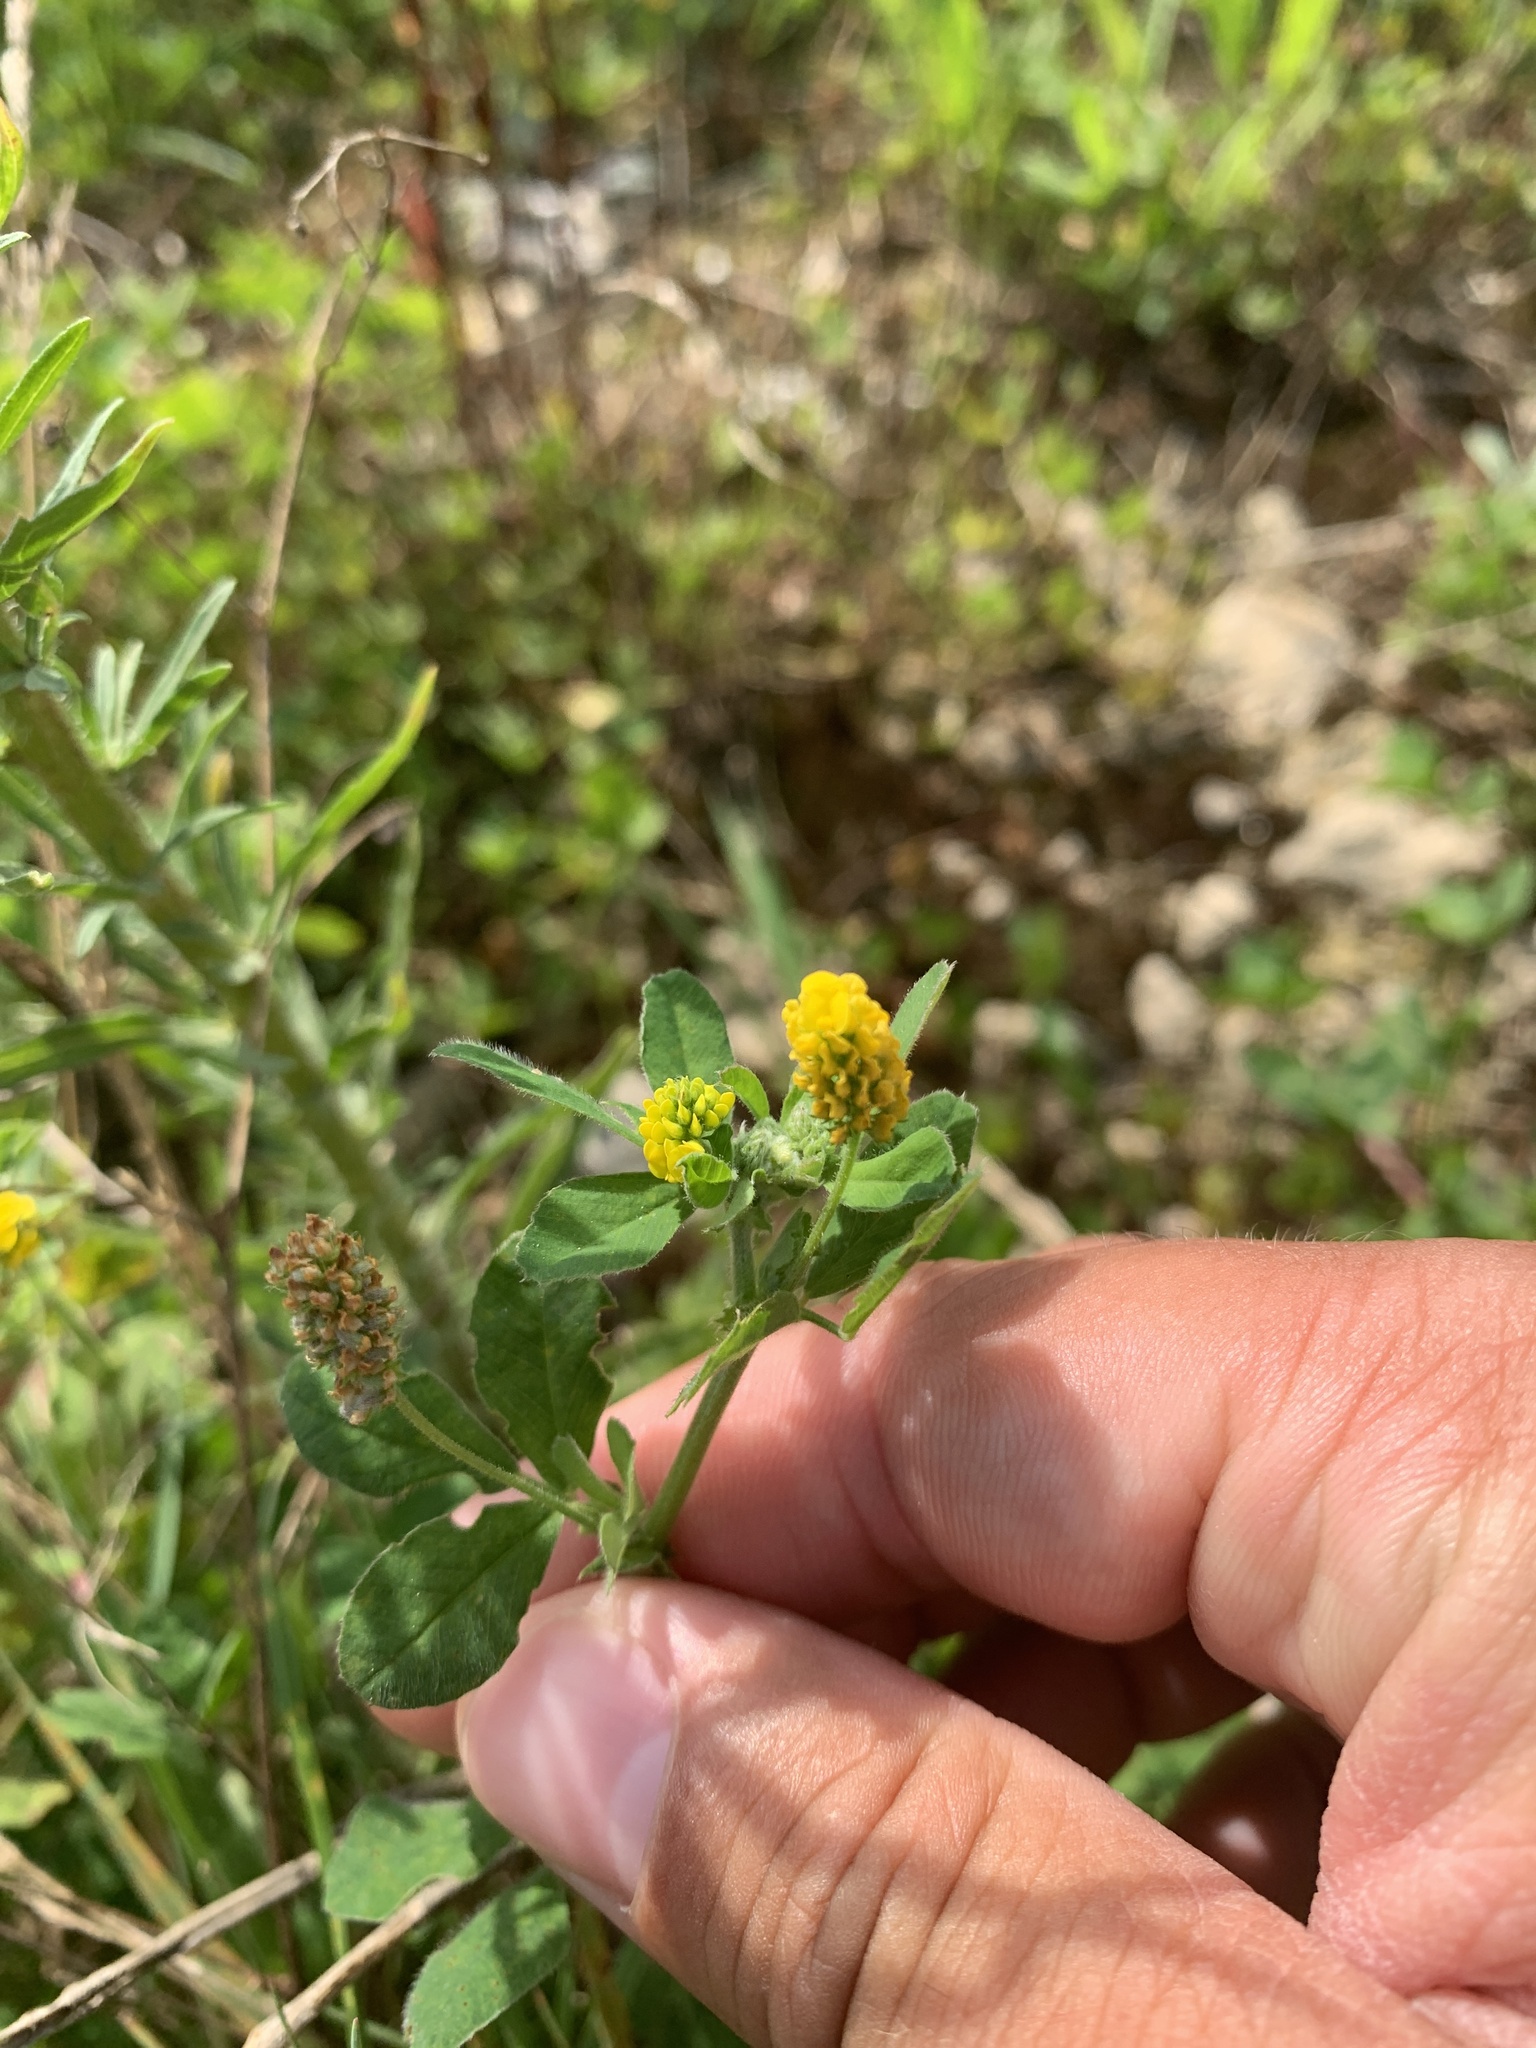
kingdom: Plantae
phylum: Tracheophyta
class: Magnoliopsida
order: Fabales
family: Fabaceae
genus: Medicago
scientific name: Medicago lupulina
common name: Black medick
